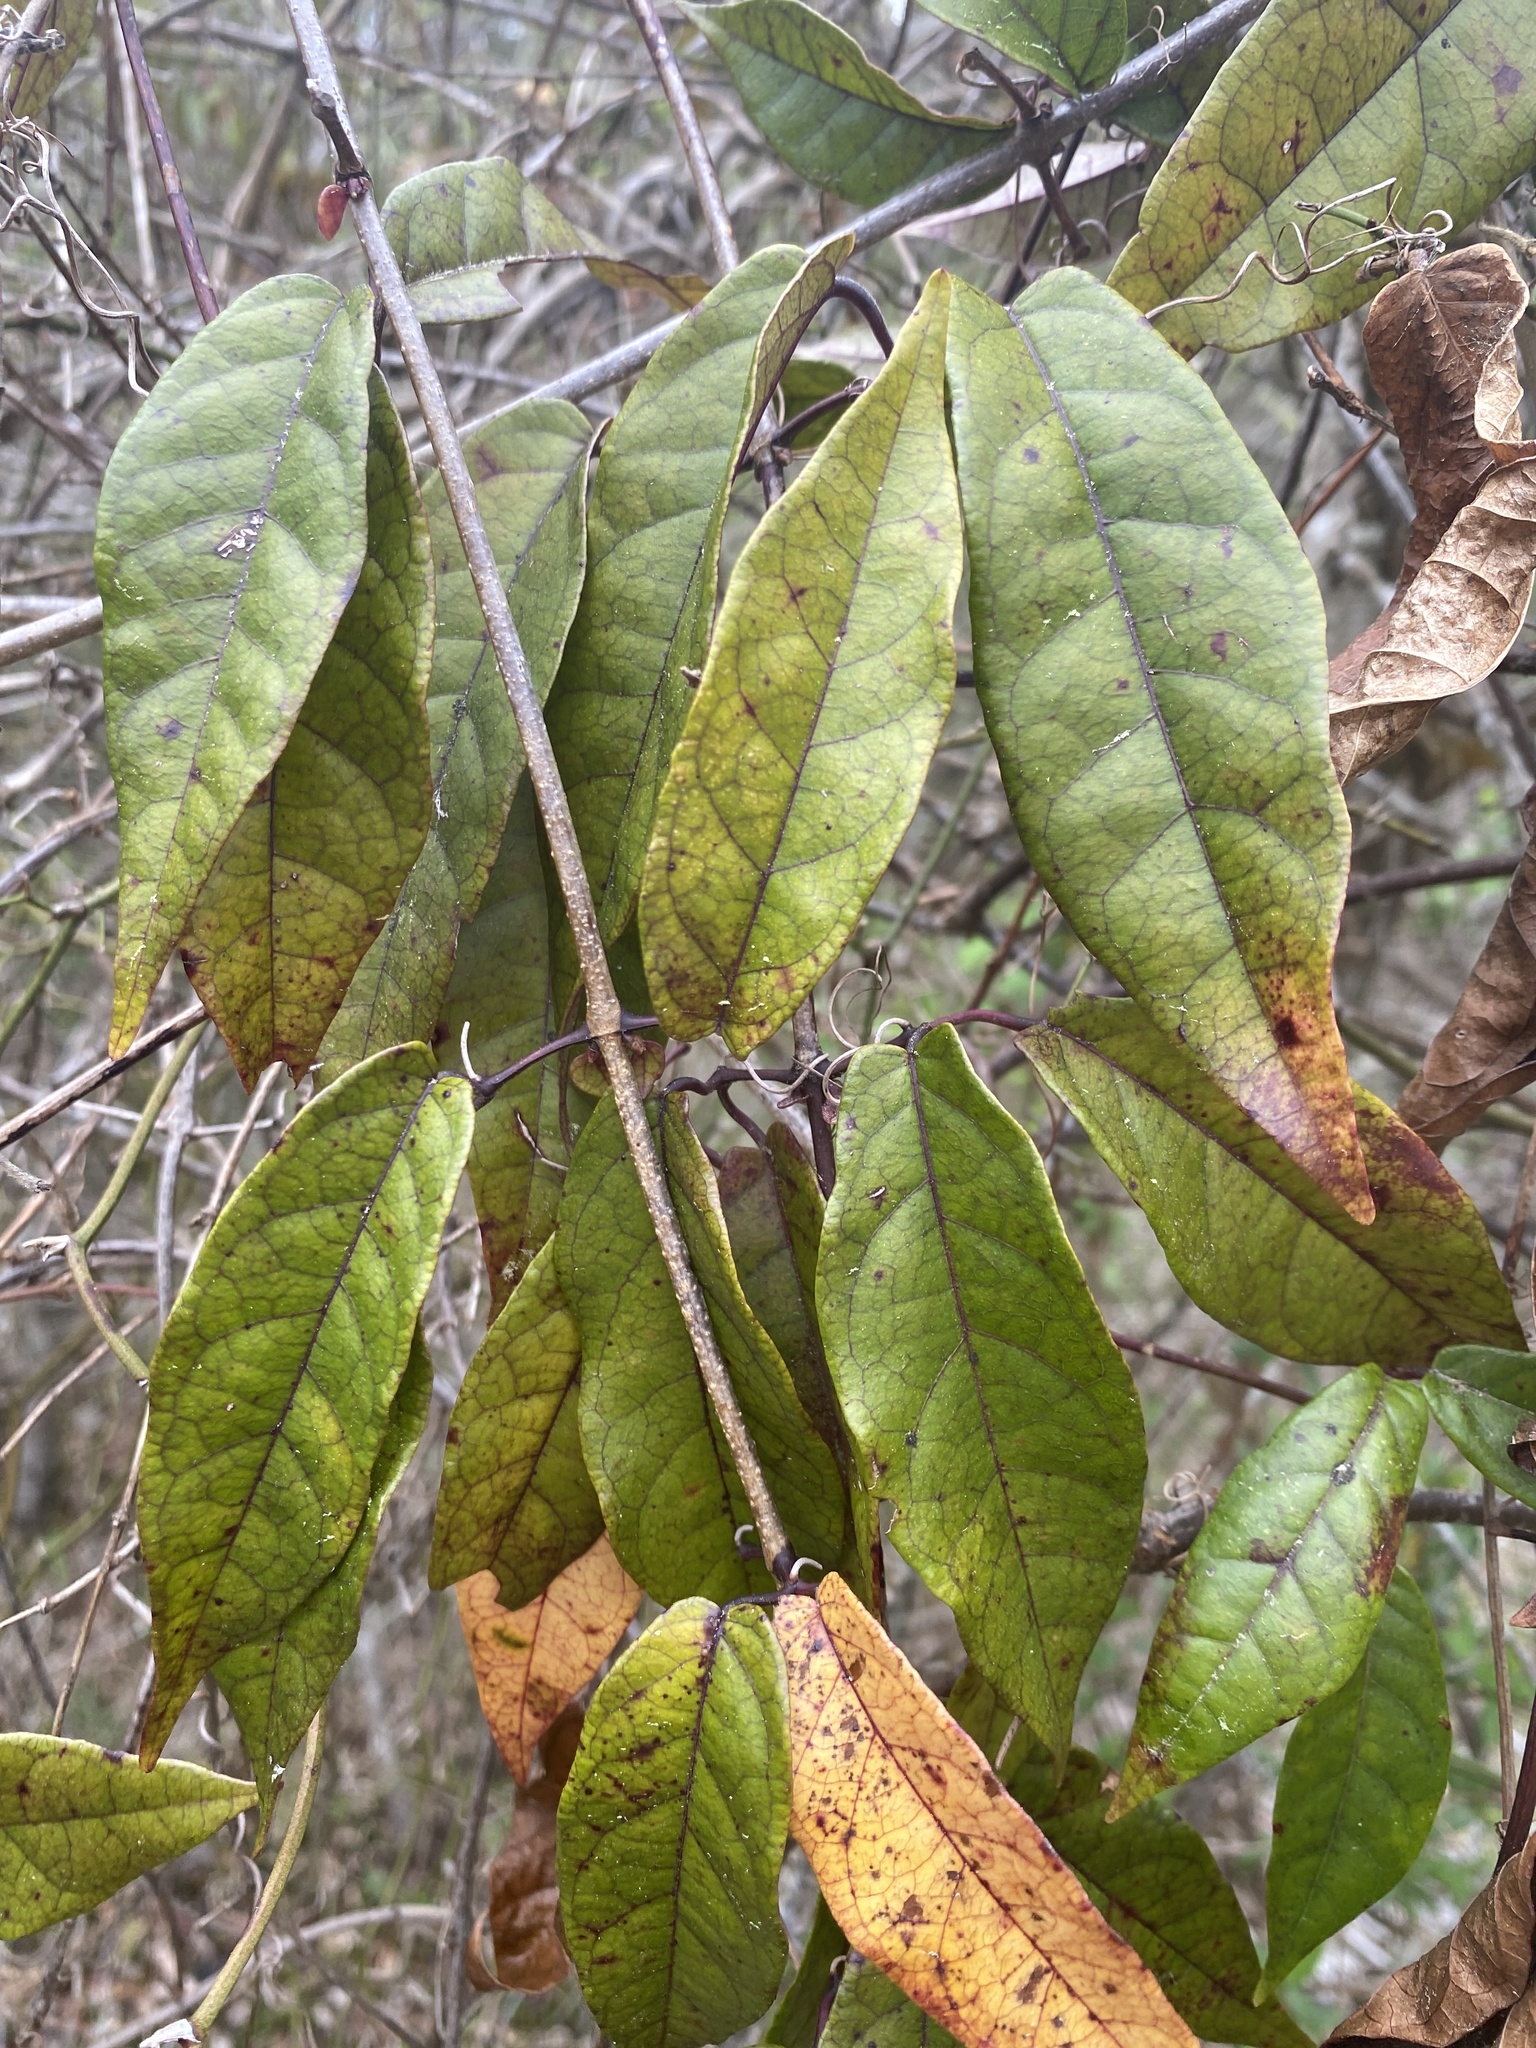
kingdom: Plantae
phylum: Tracheophyta
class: Magnoliopsida
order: Lamiales
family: Bignoniaceae
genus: Bignonia
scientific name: Bignonia capreolata
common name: Crossvine
